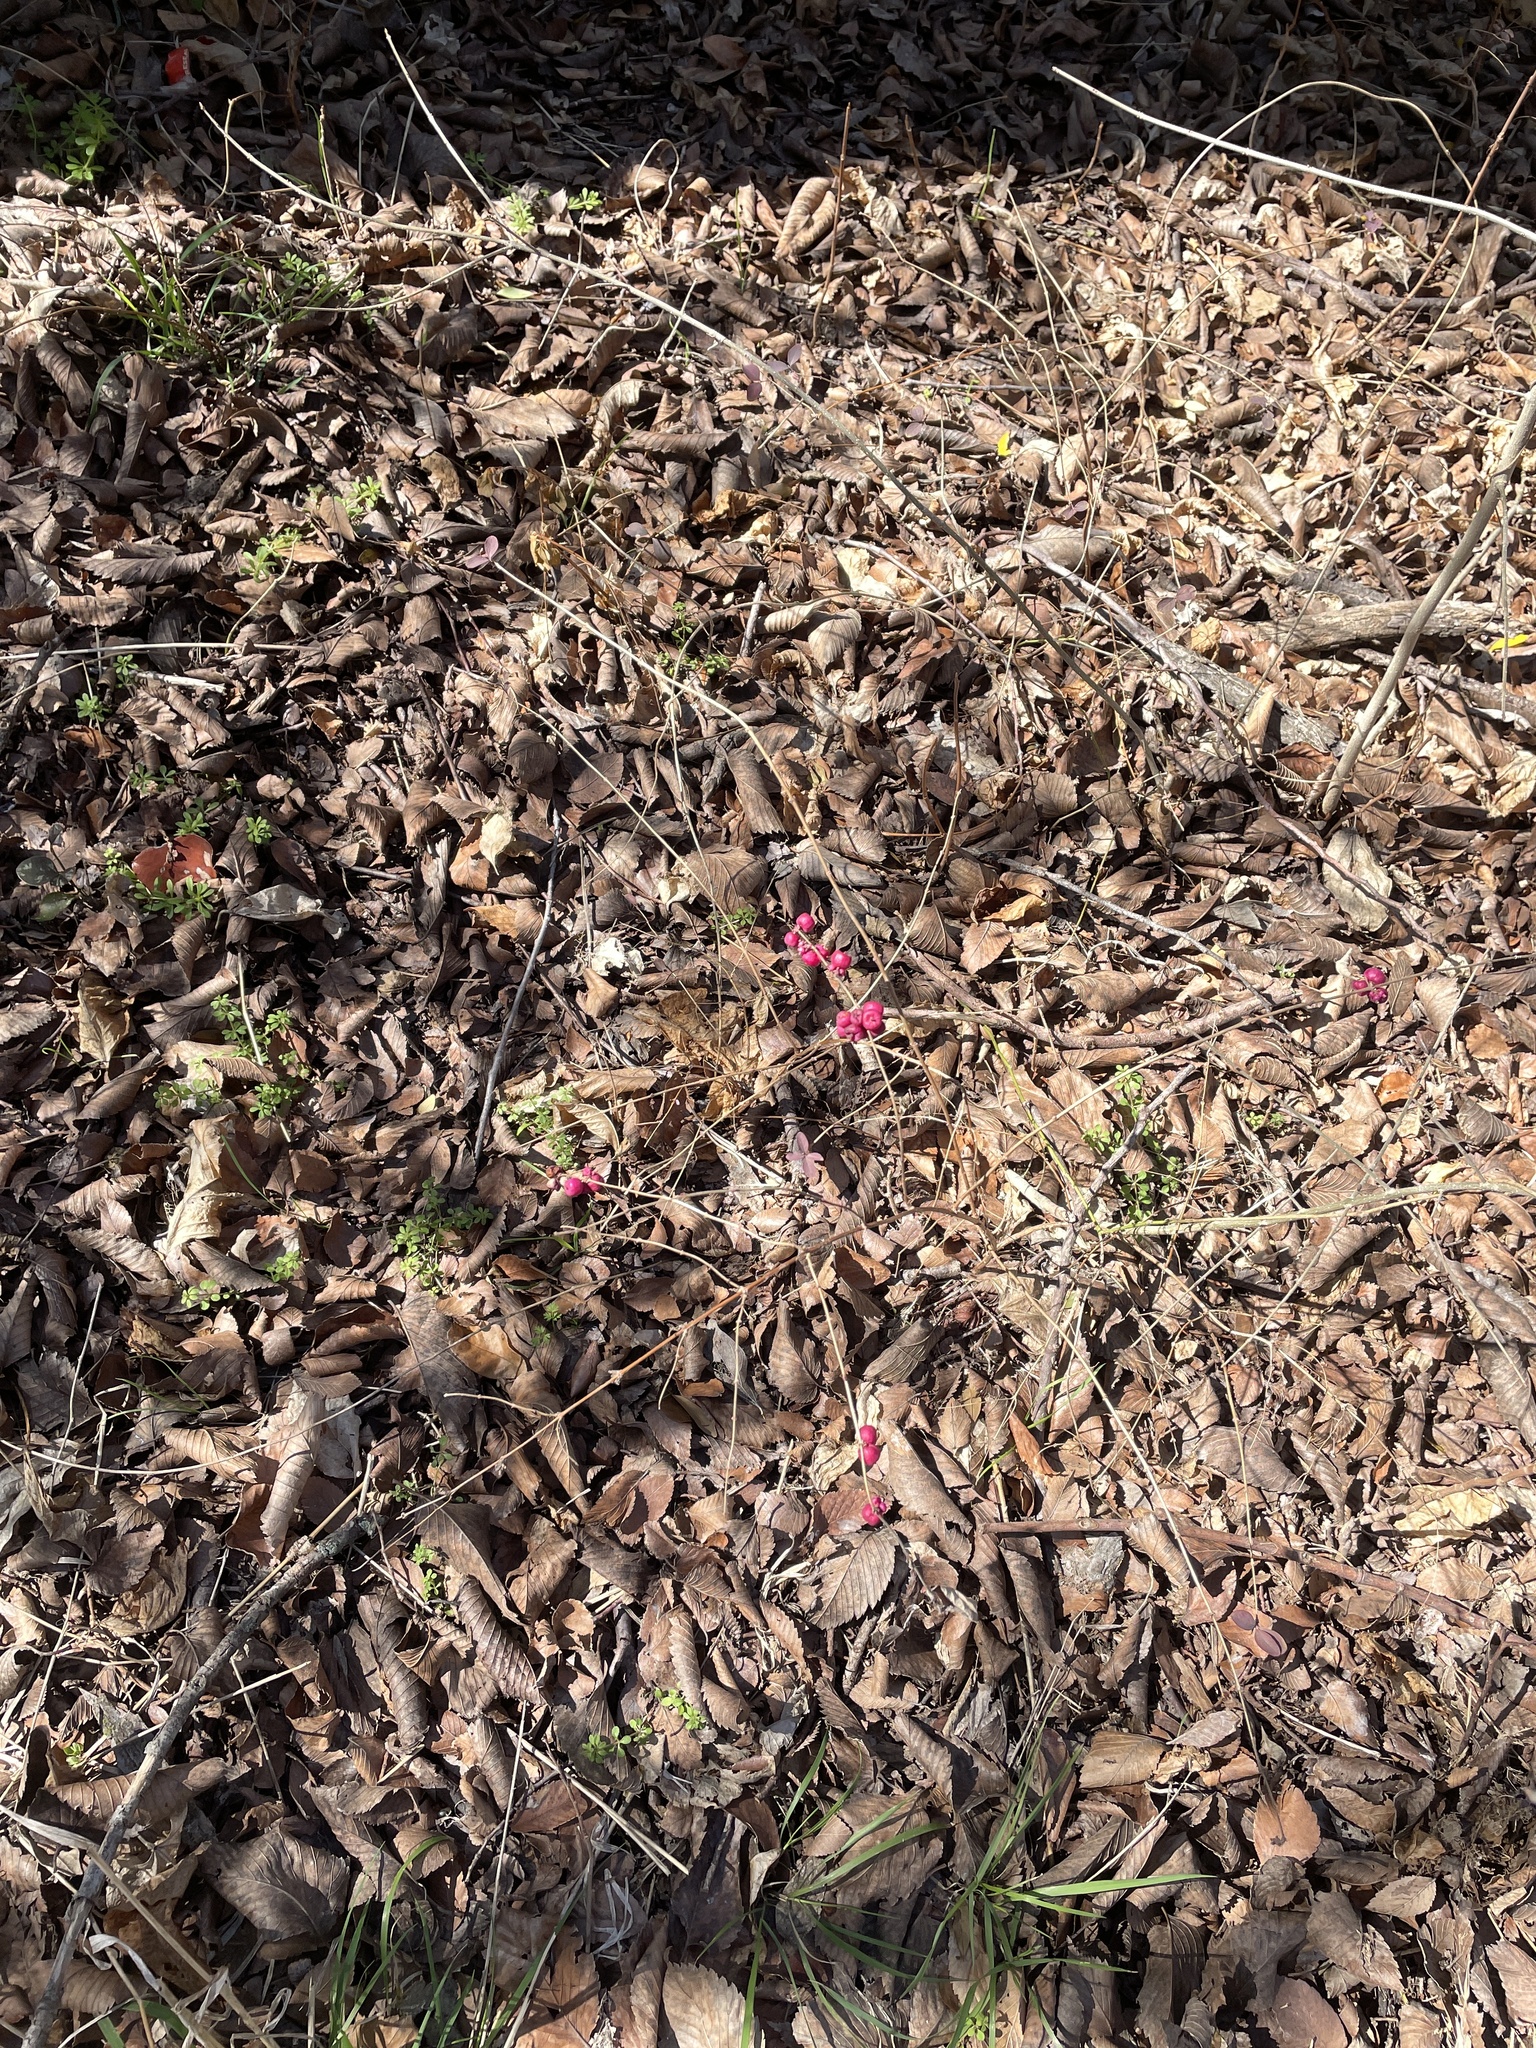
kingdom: Plantae
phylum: Tracheophyta
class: Magnoliopsida
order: Dipsacales
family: Caprifoliaceae
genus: Symphoricarpos
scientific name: Symphoricarpos orbiculatus
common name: Coralberry
